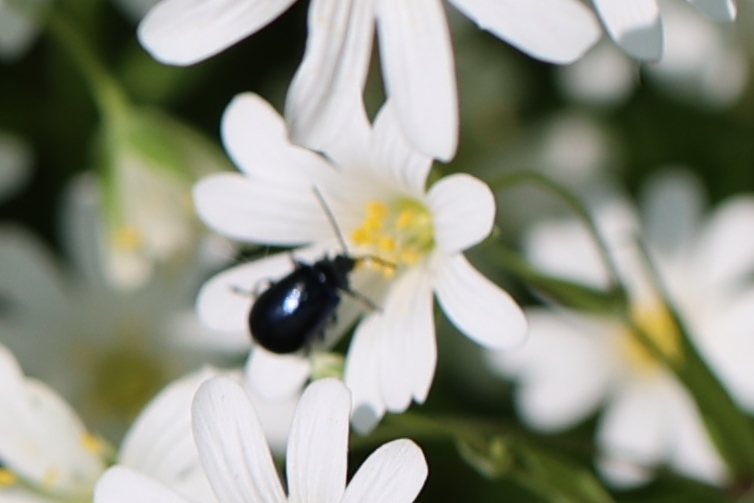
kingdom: Animalia
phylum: Arthropoda
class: Insecta
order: Coleoptera
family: Chrysomelidae
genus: Agelastica
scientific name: Agelastica alni
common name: Alder leaf beetle
